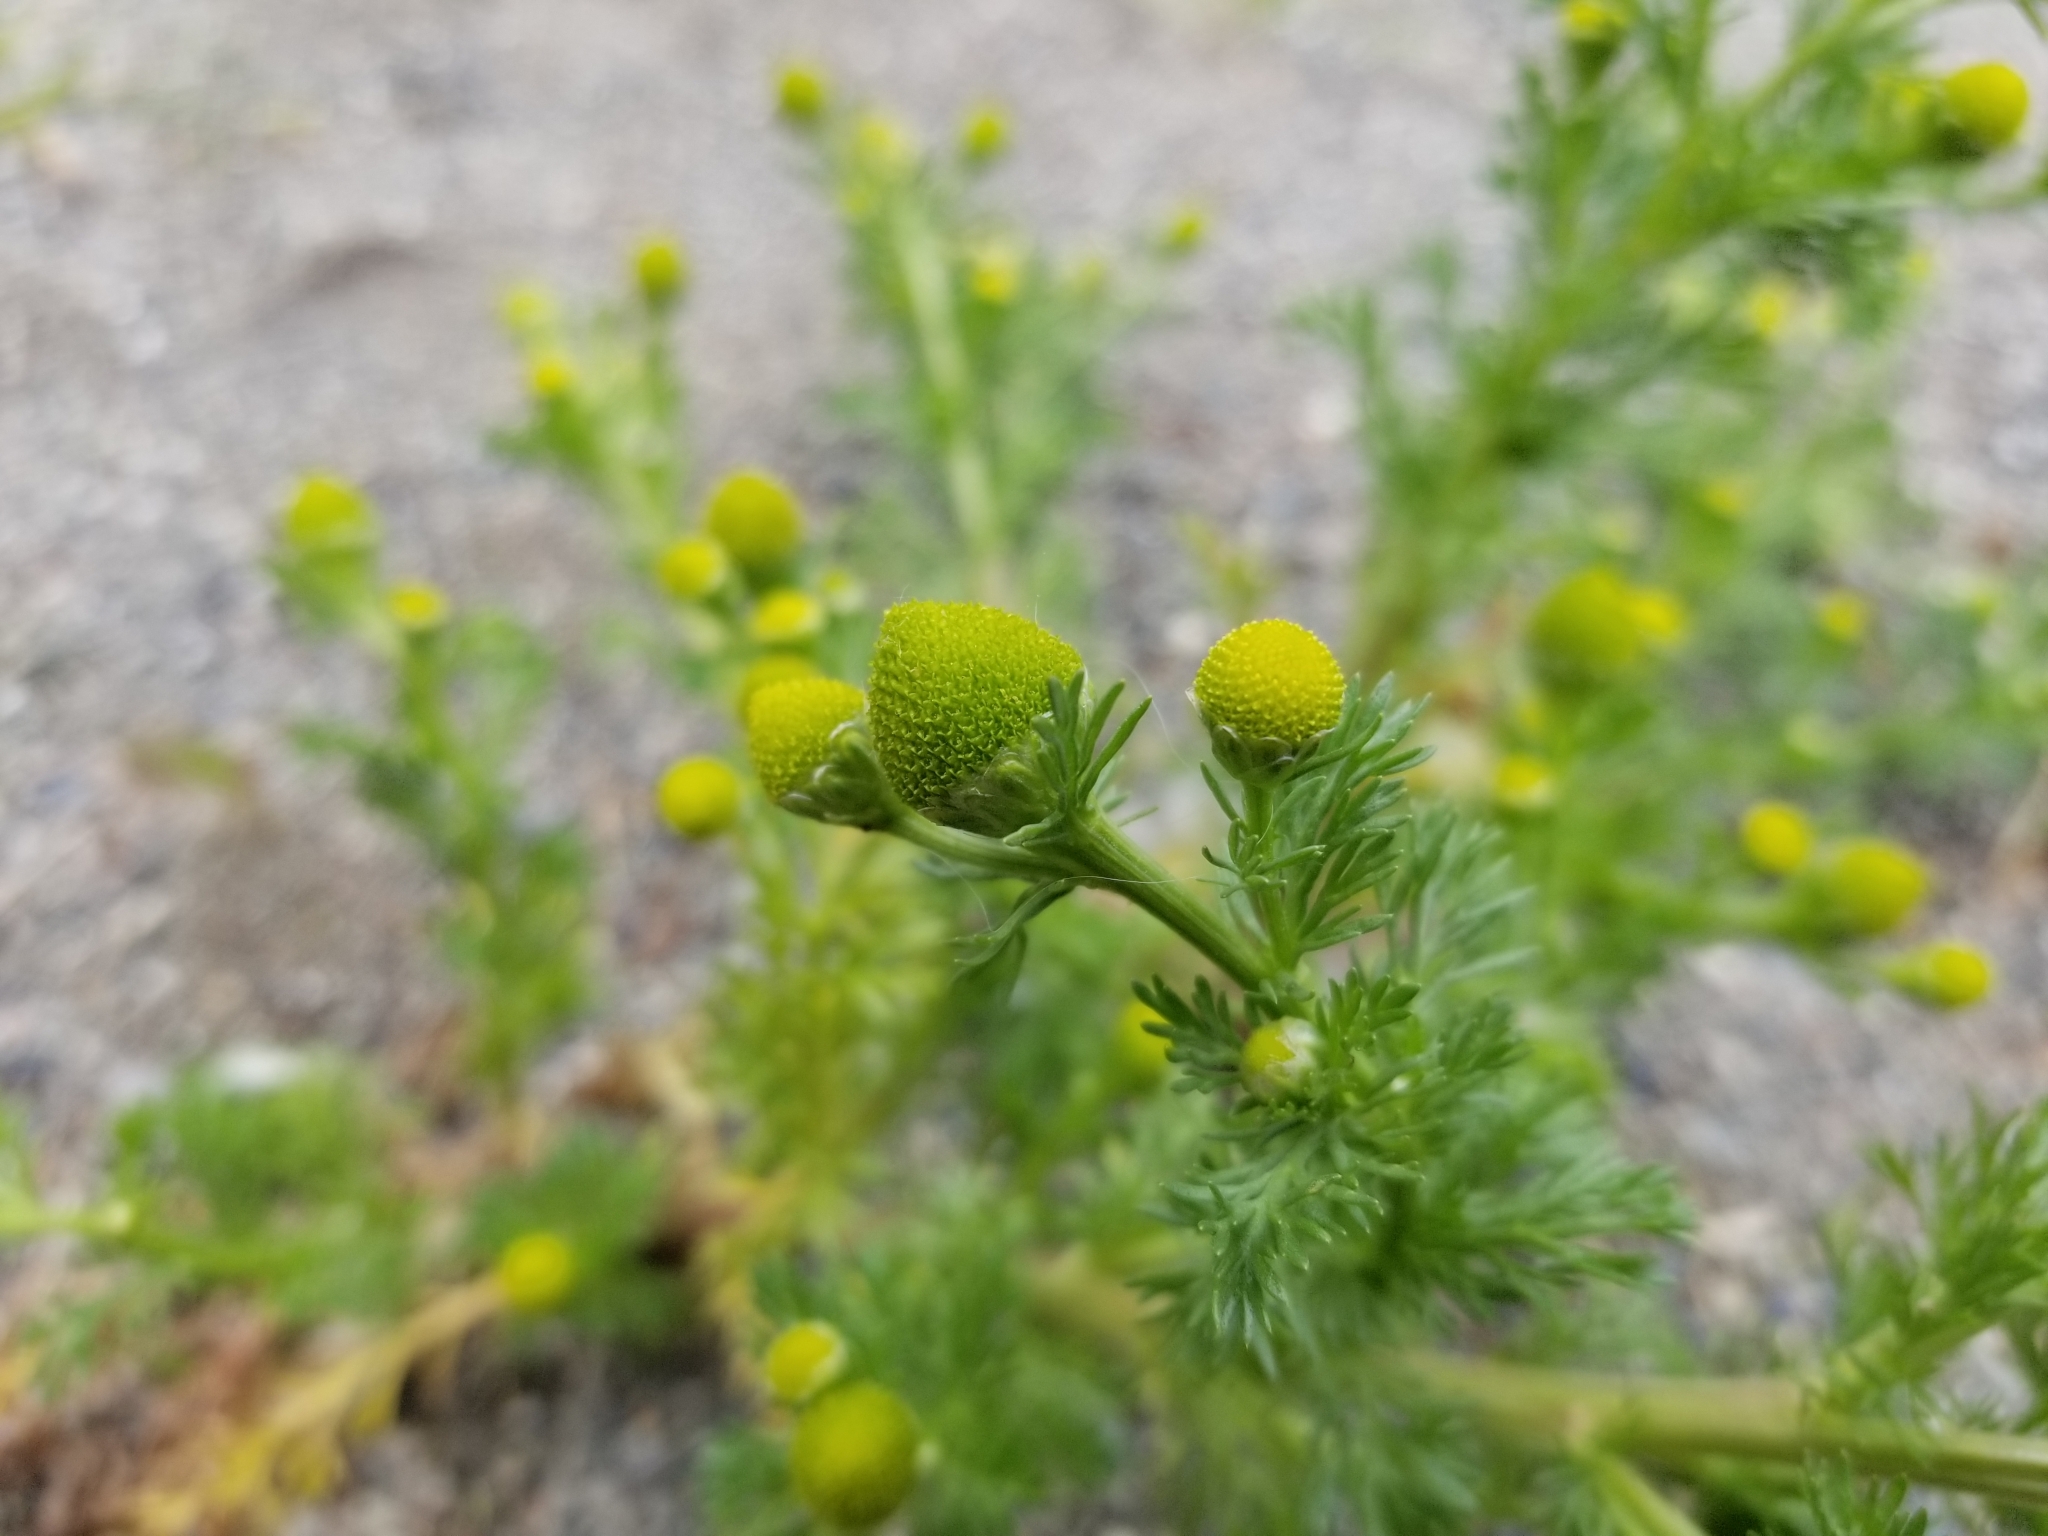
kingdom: Plantae
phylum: Tracheophyta
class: Magnoliopsida
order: Asterales
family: Asteraceae
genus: Matricaria
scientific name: Matricaria discoidea
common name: Disc mayweed
